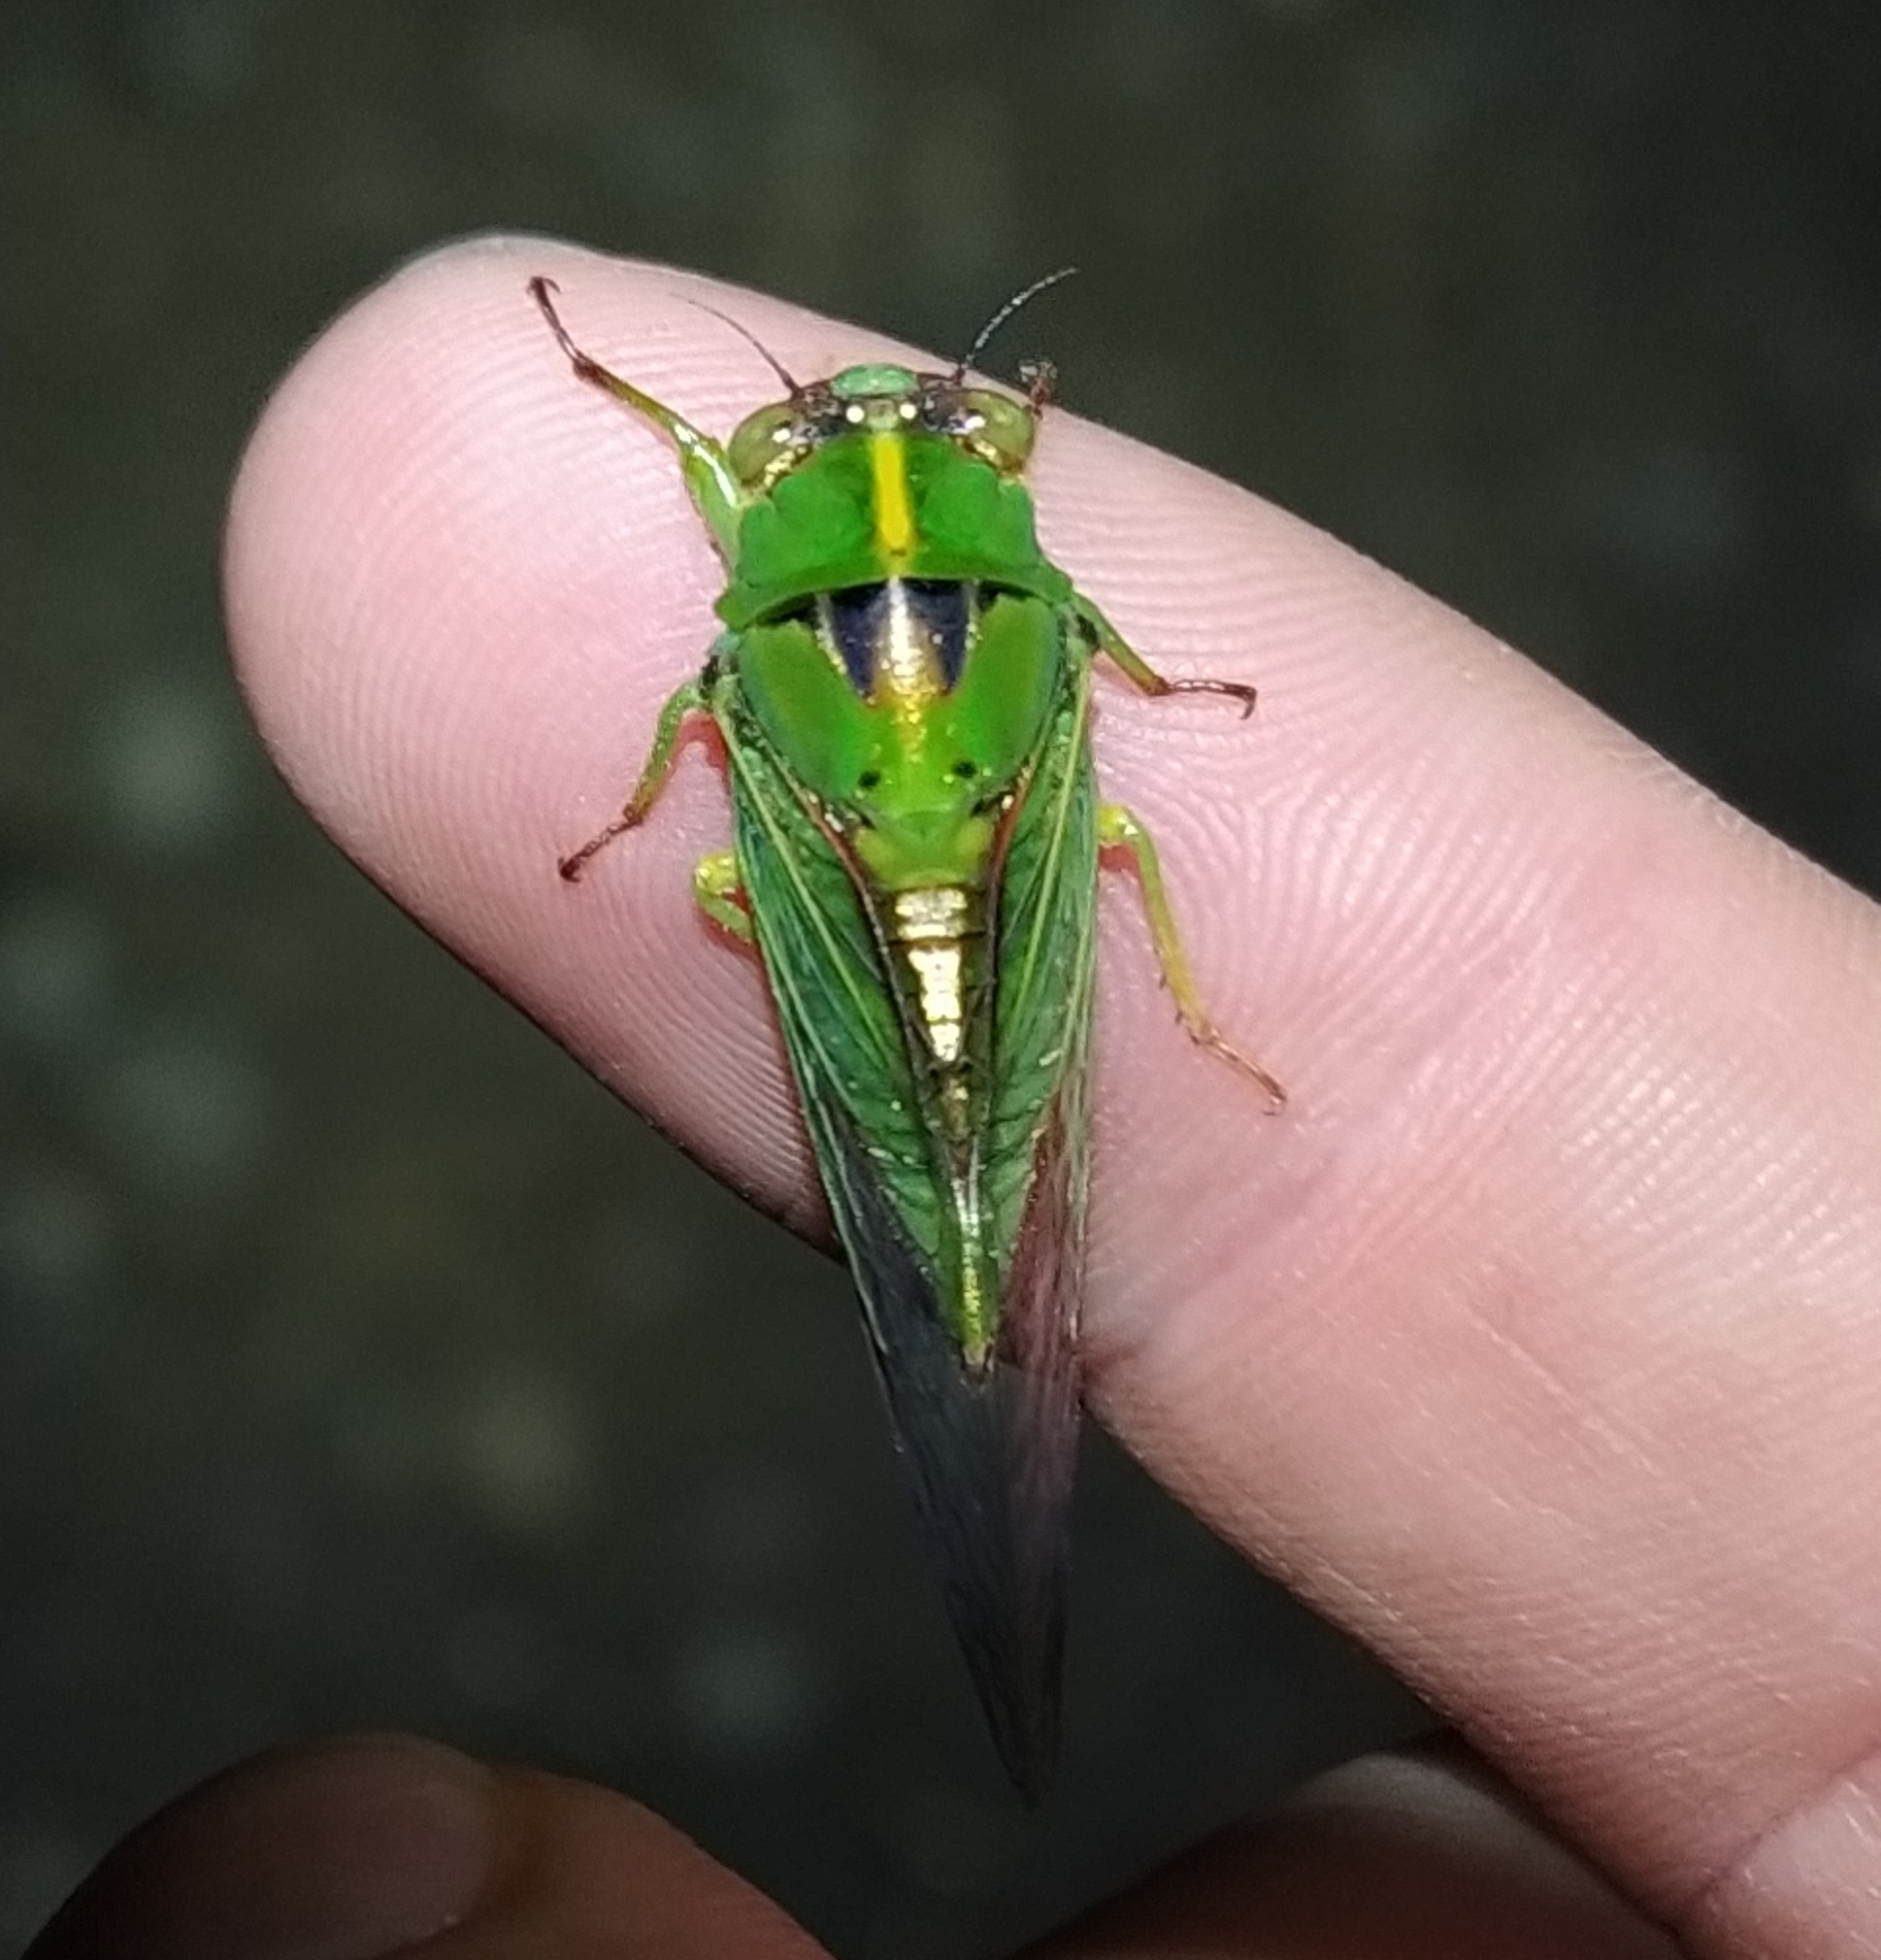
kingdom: Animalia
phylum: Arthropoda
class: Insecta
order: Hemiptera
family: Cicadidae
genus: Kikihia
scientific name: Kikihia cutora
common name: Northern snoring cicada
